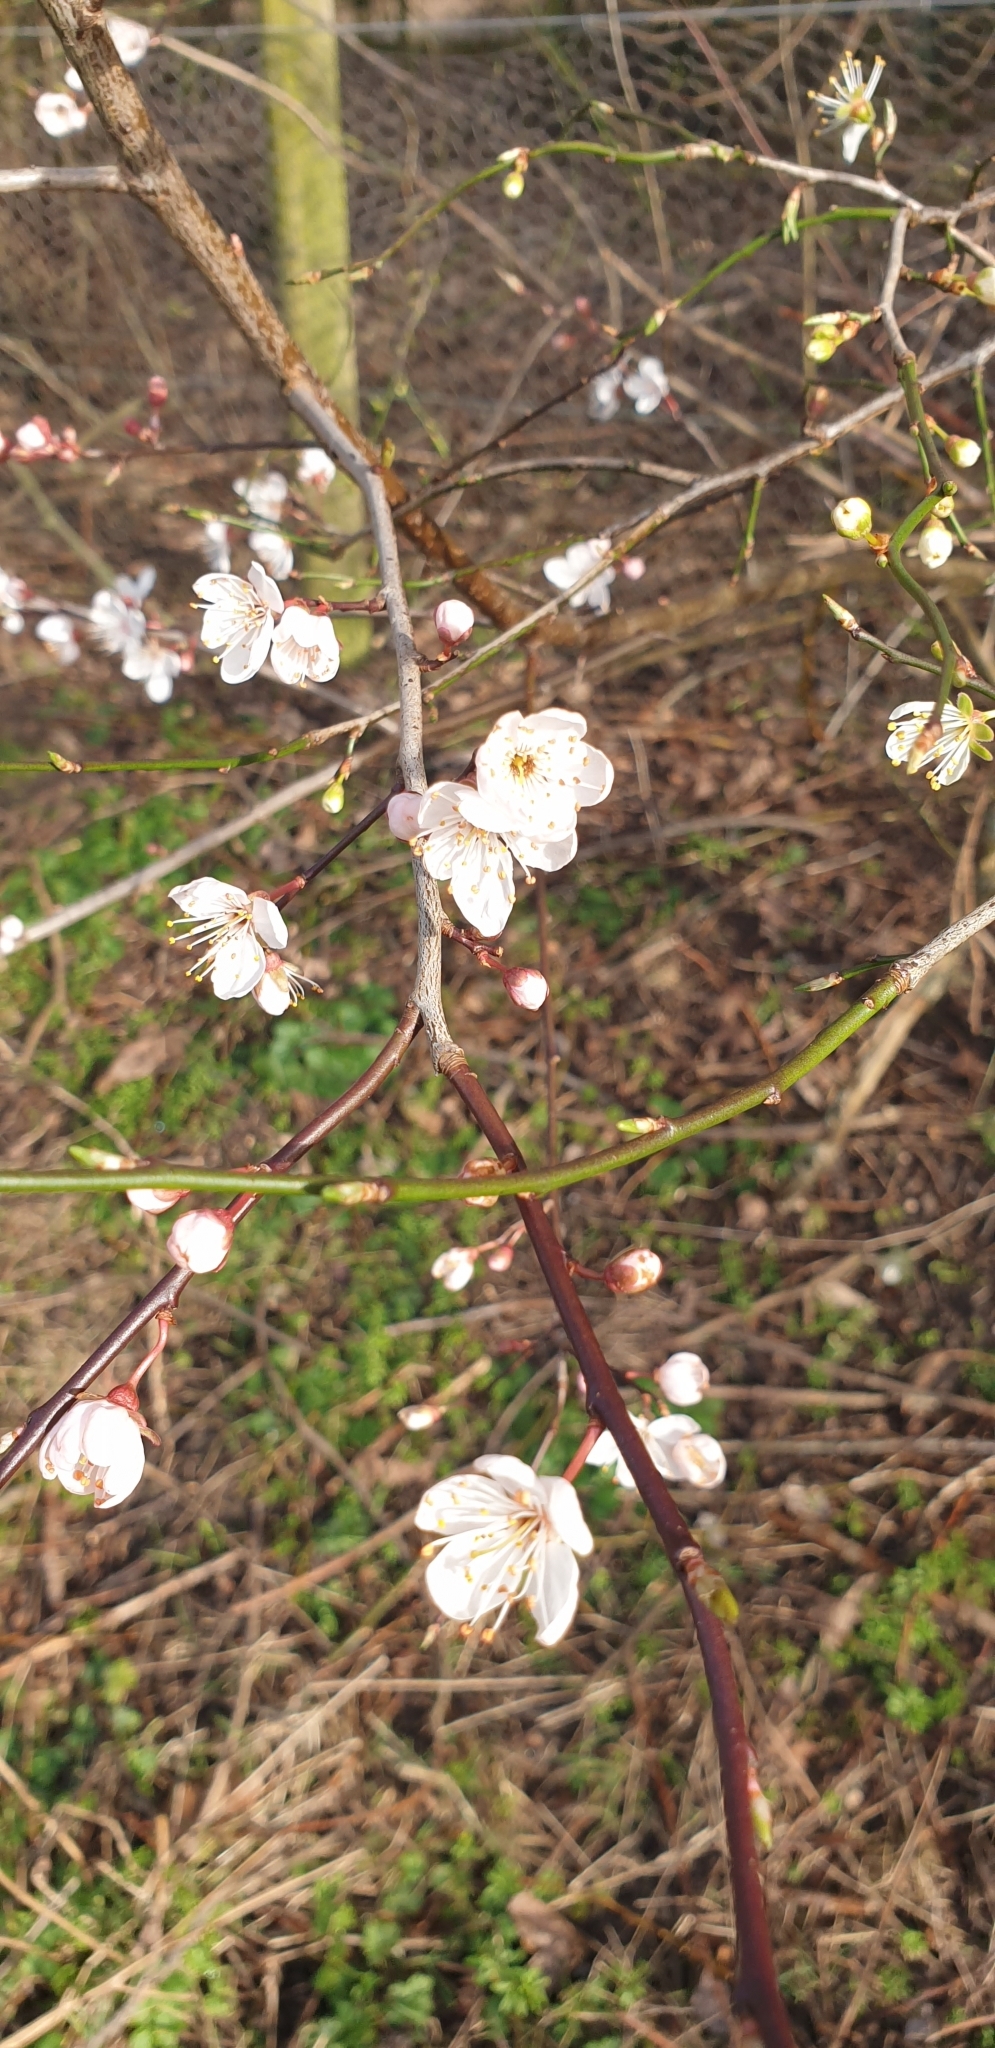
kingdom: Plantae
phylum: Tracheophyta
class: Magnoliopsida
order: Rosales
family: Rosaceae
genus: Prunus
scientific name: Prunus cerasifera
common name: Cherry plum
